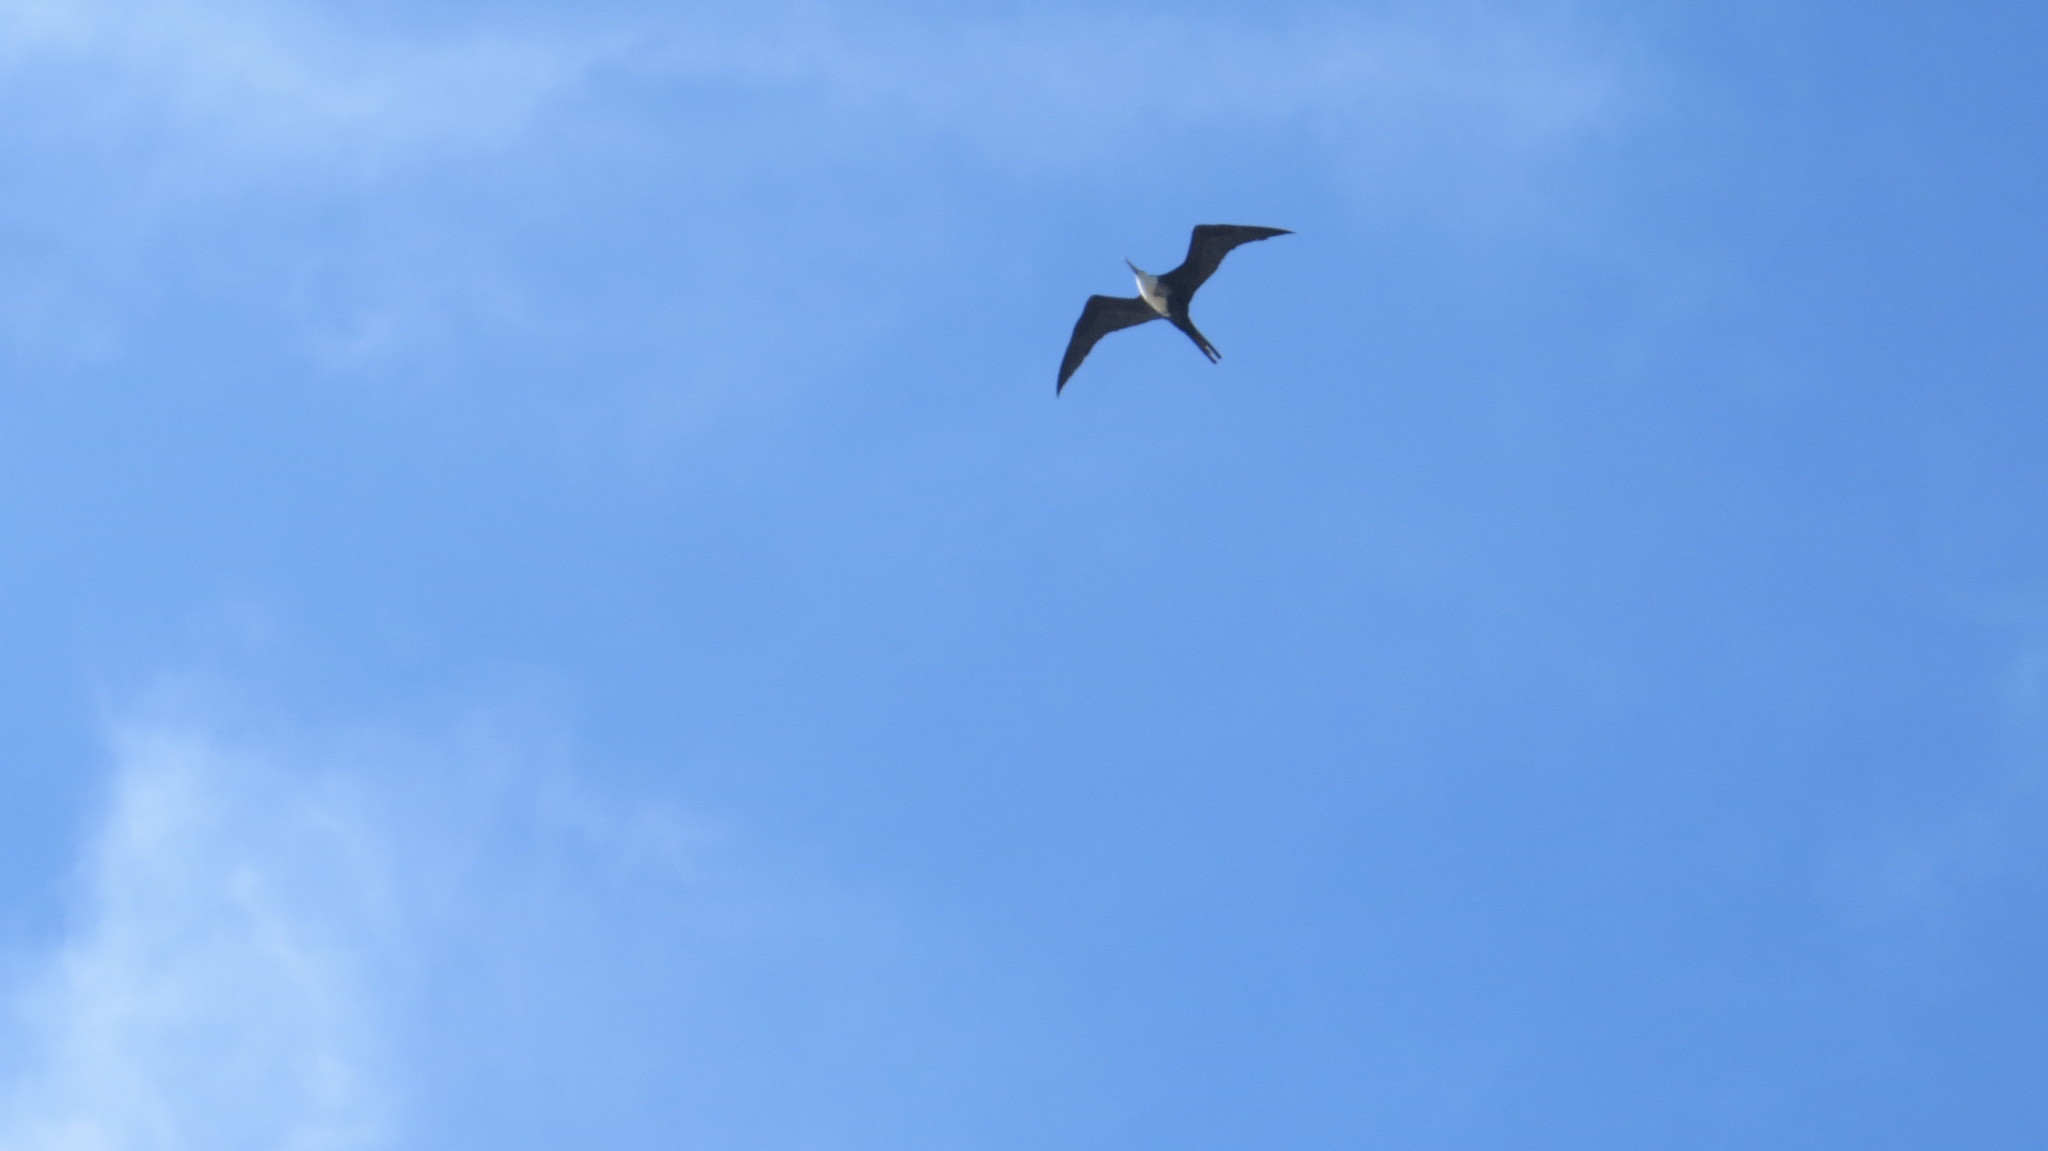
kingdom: Animalia
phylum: Chordata
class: Aves
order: Suliformes
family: Fregatidae
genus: Fregata
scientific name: Fregata magnificens
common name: Magnificent frigatebird
